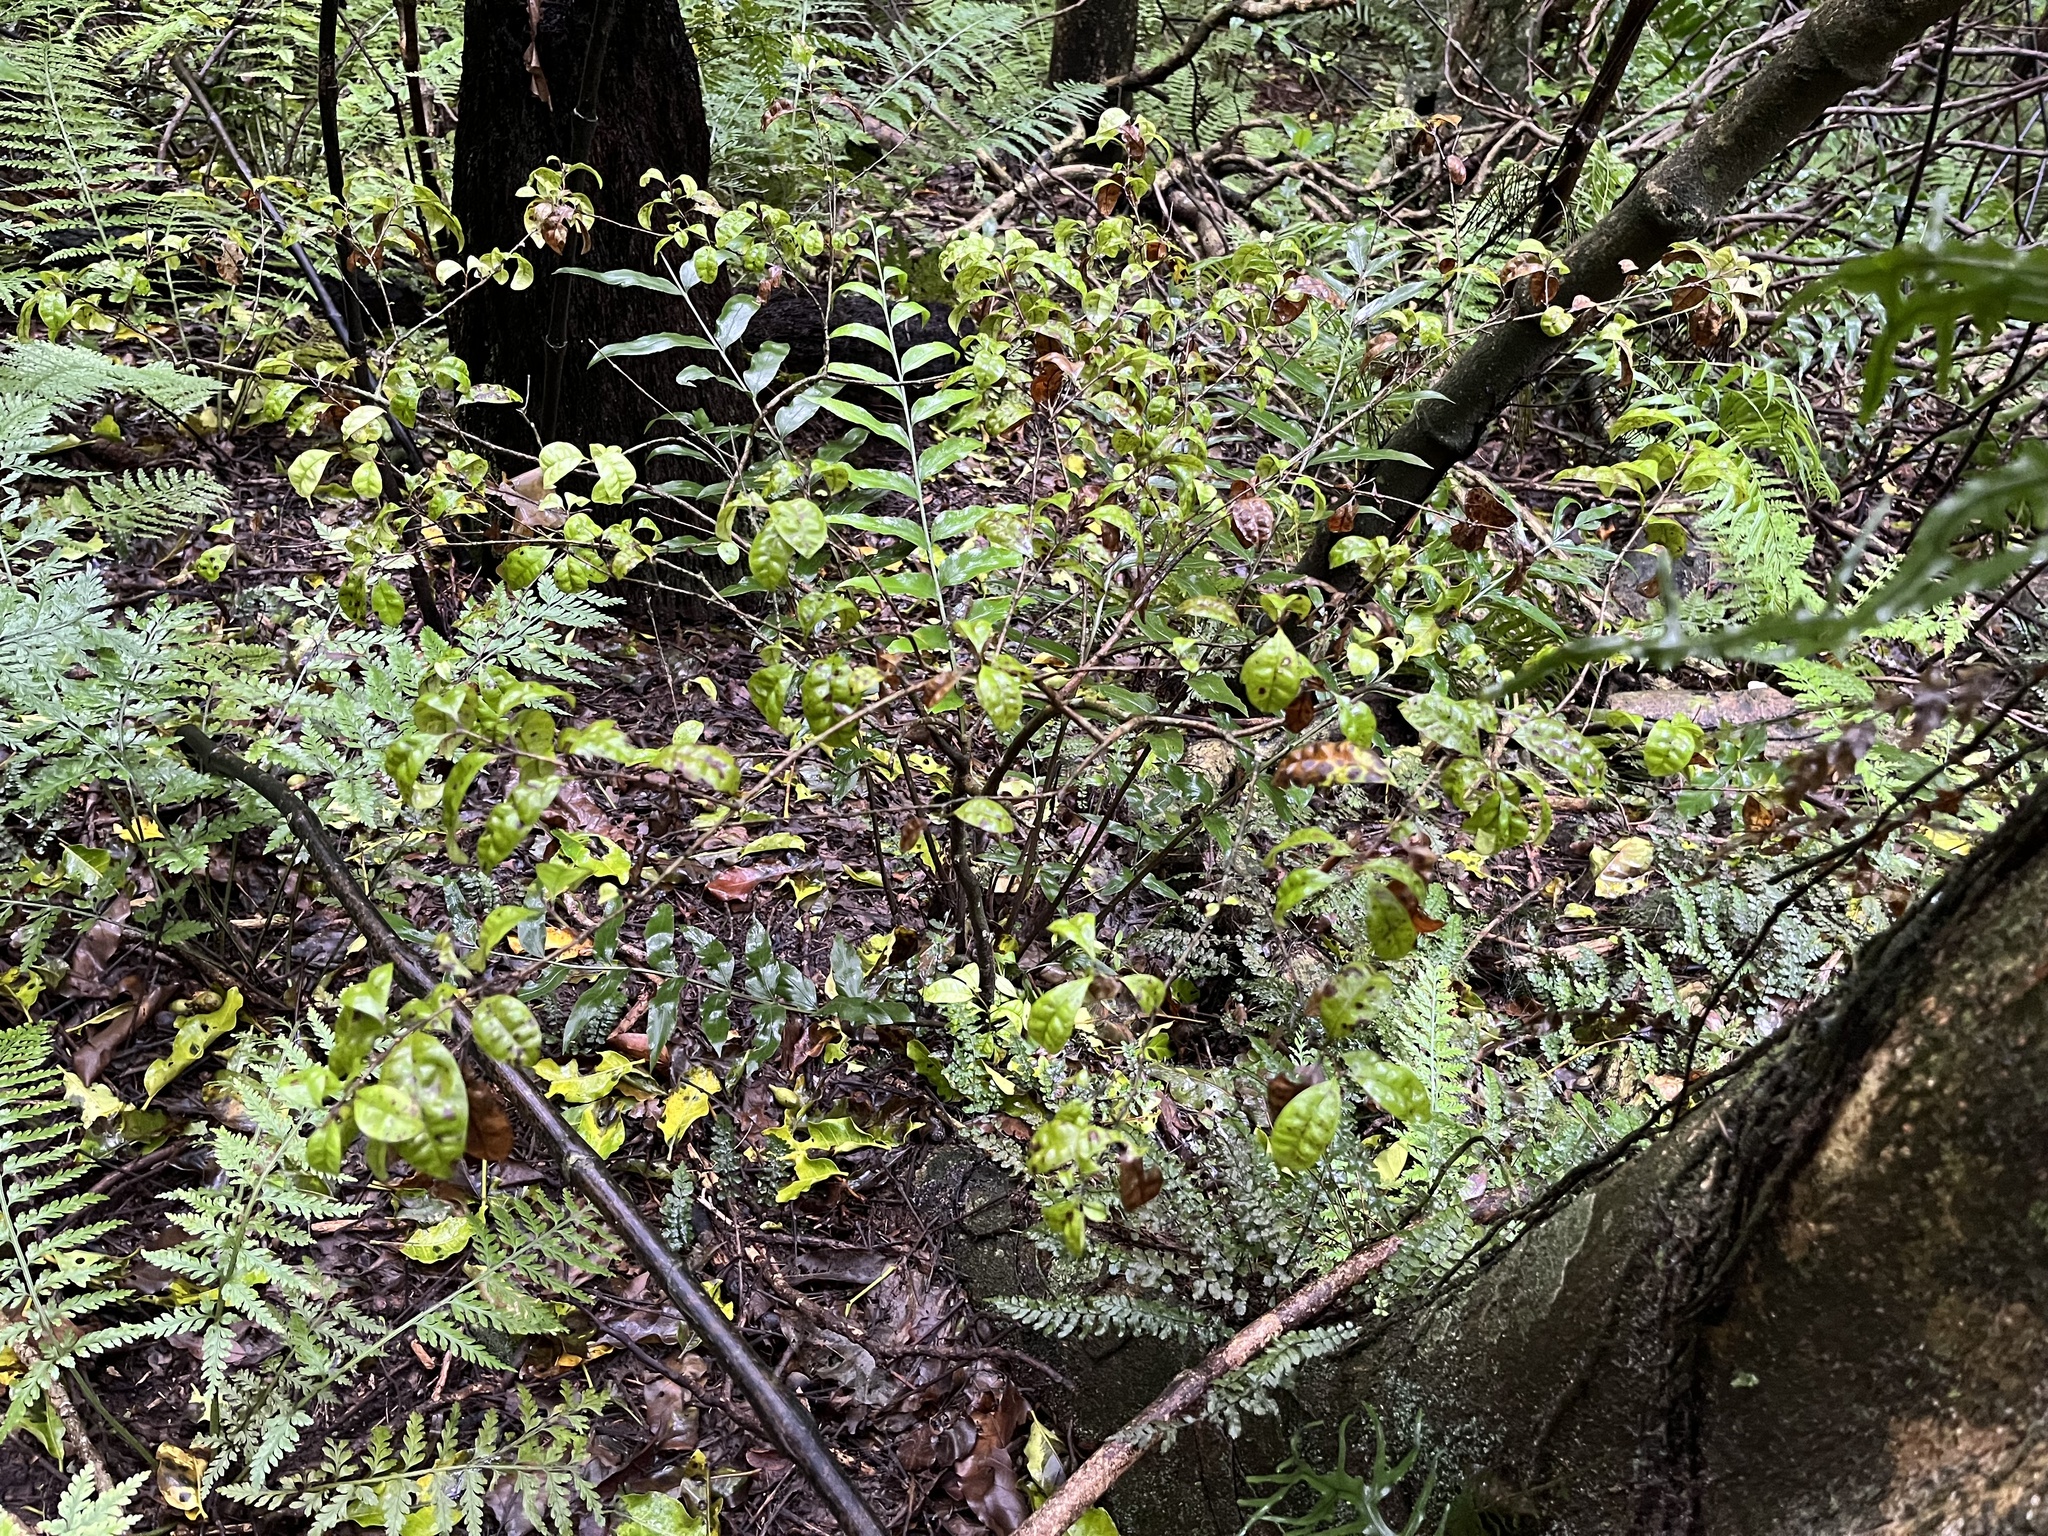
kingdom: Plantae
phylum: Tracheophyta
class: Magnoliopsida
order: Myrtales
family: Myrtaceae
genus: Lophomyrtus
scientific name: Lophomyrtus bullata
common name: Rama rama
